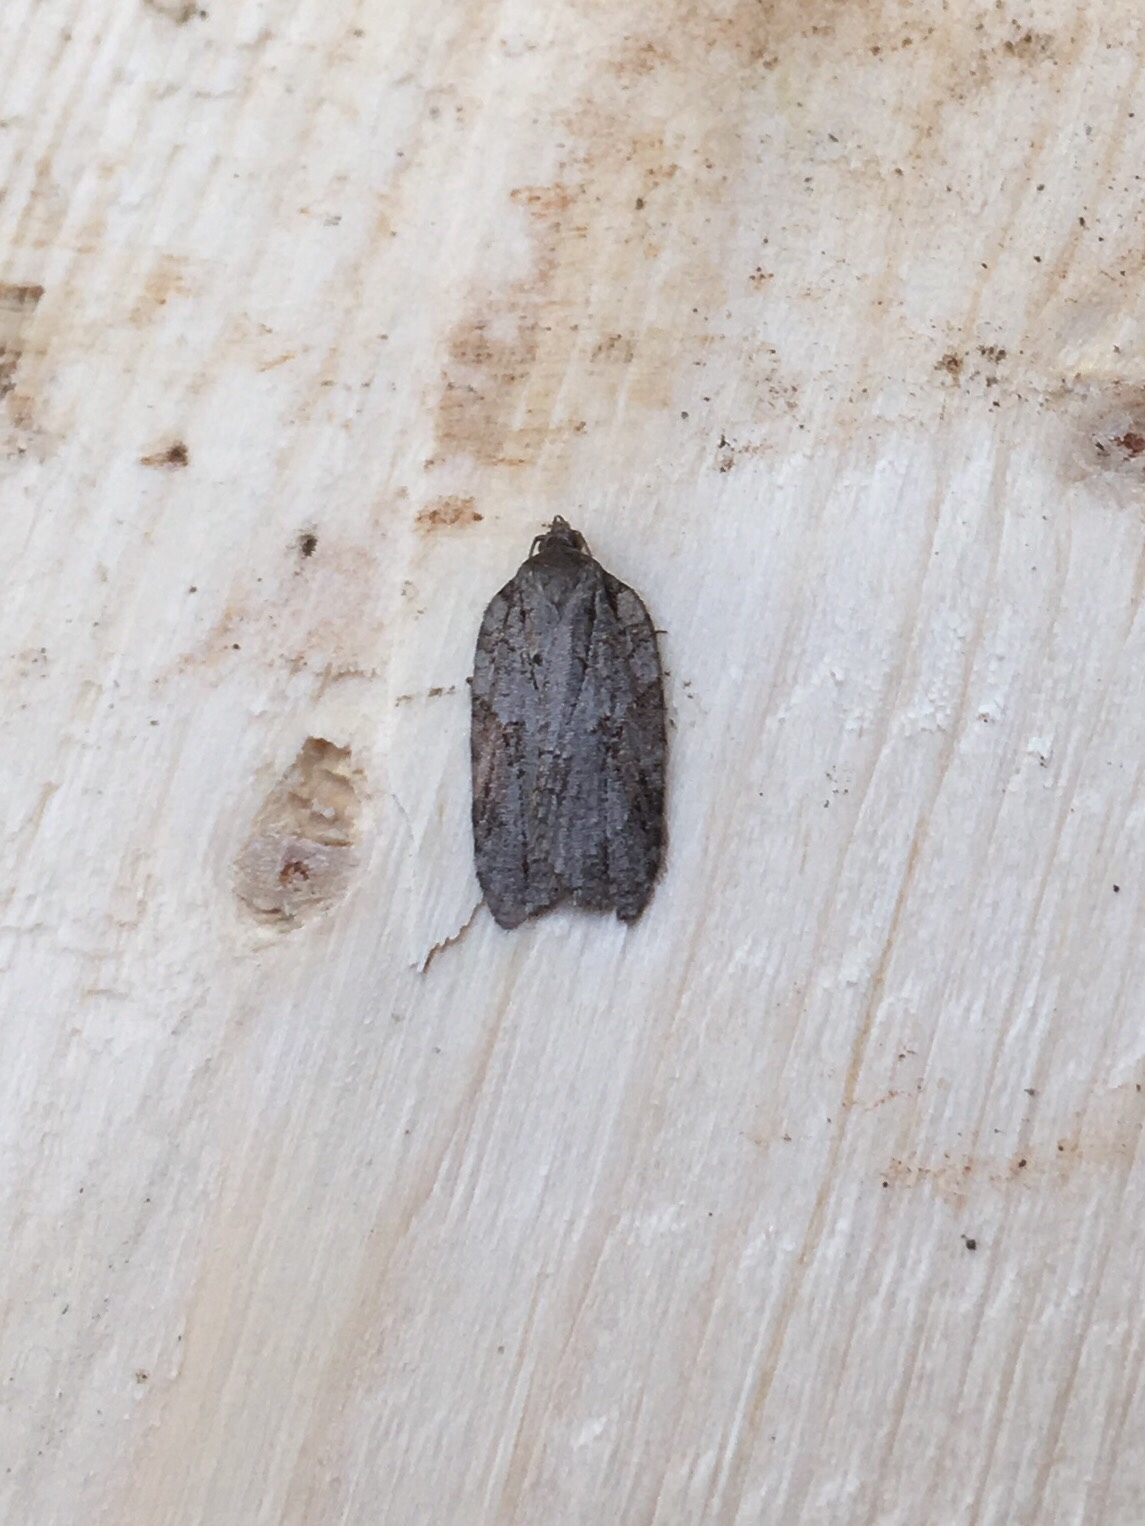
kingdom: Animalia
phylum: Arthropoda
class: Insecta
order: Lepidoptera
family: Tortricidae
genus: Acleris
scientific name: Acleris ptychogrammos
